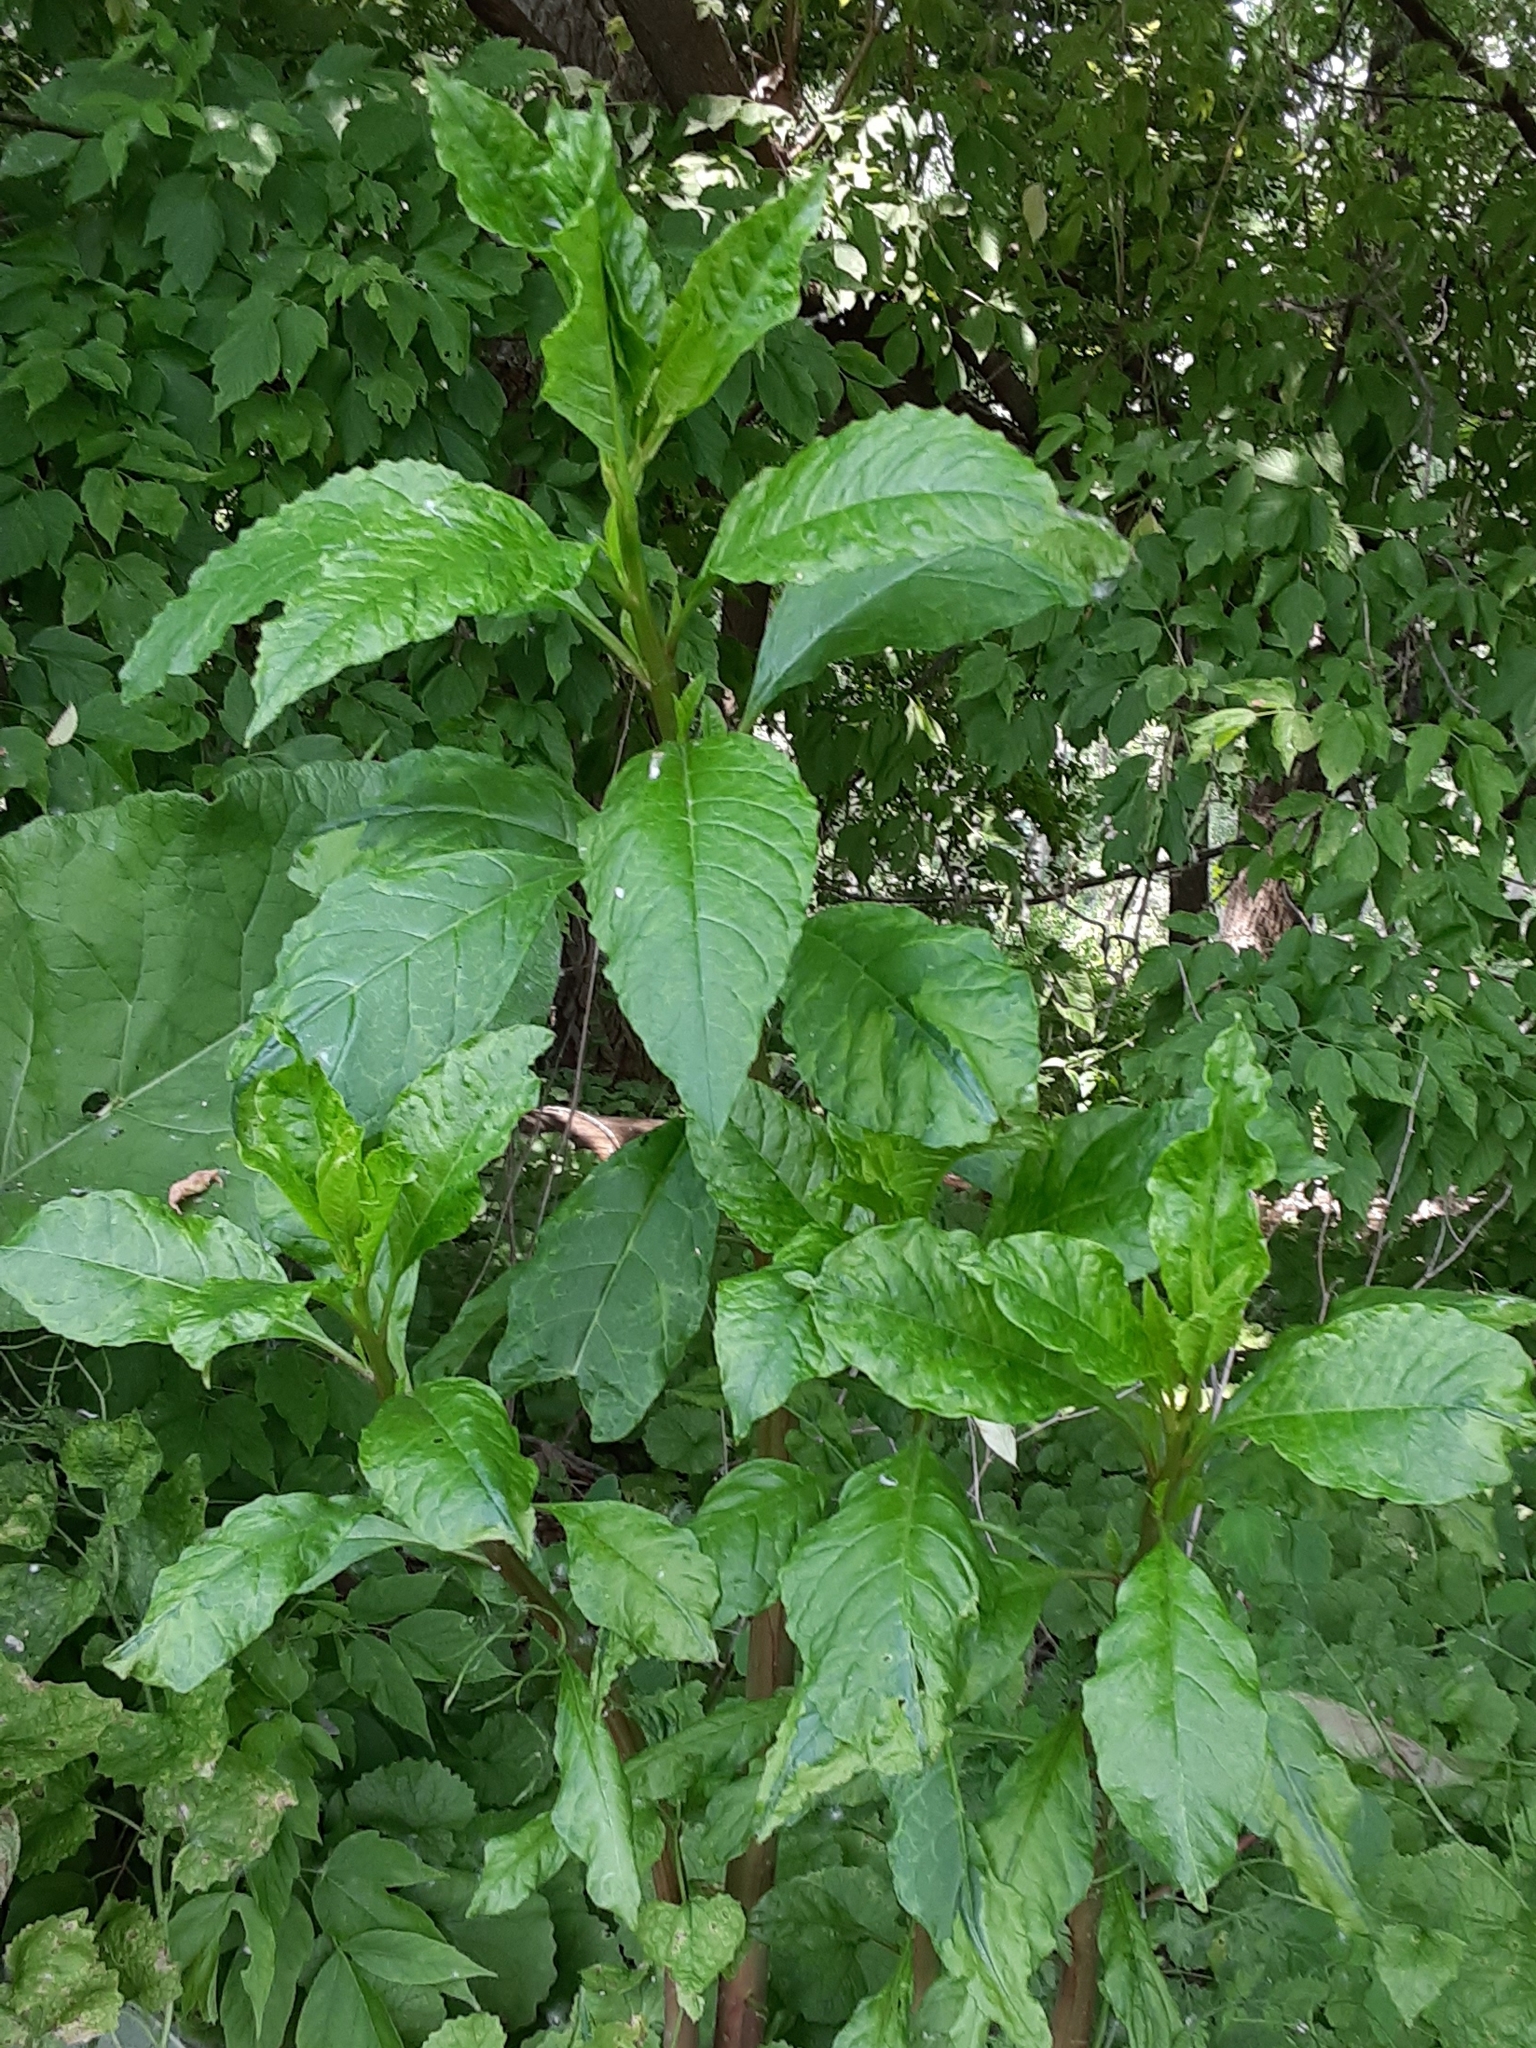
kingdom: Plantae
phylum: Tracheophyta
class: Magnoliopsida
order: Caryophyllales
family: Phytolaccaceae
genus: Phytolacca
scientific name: Phytolacca americana
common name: American pokeweed
